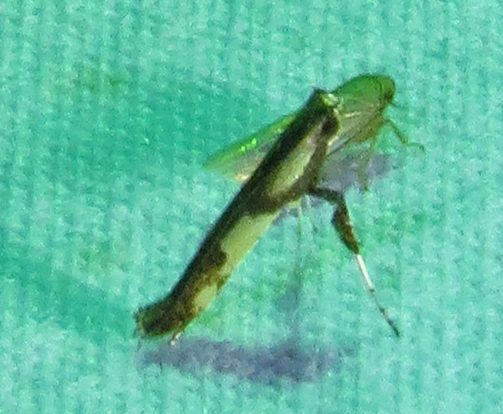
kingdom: Animalia
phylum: Arthropoda
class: Insecta
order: Lepidoptera
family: Gracillariidae
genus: Caloptilia
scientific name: Caloptilia blandella
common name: Walnut caloptilia moth
